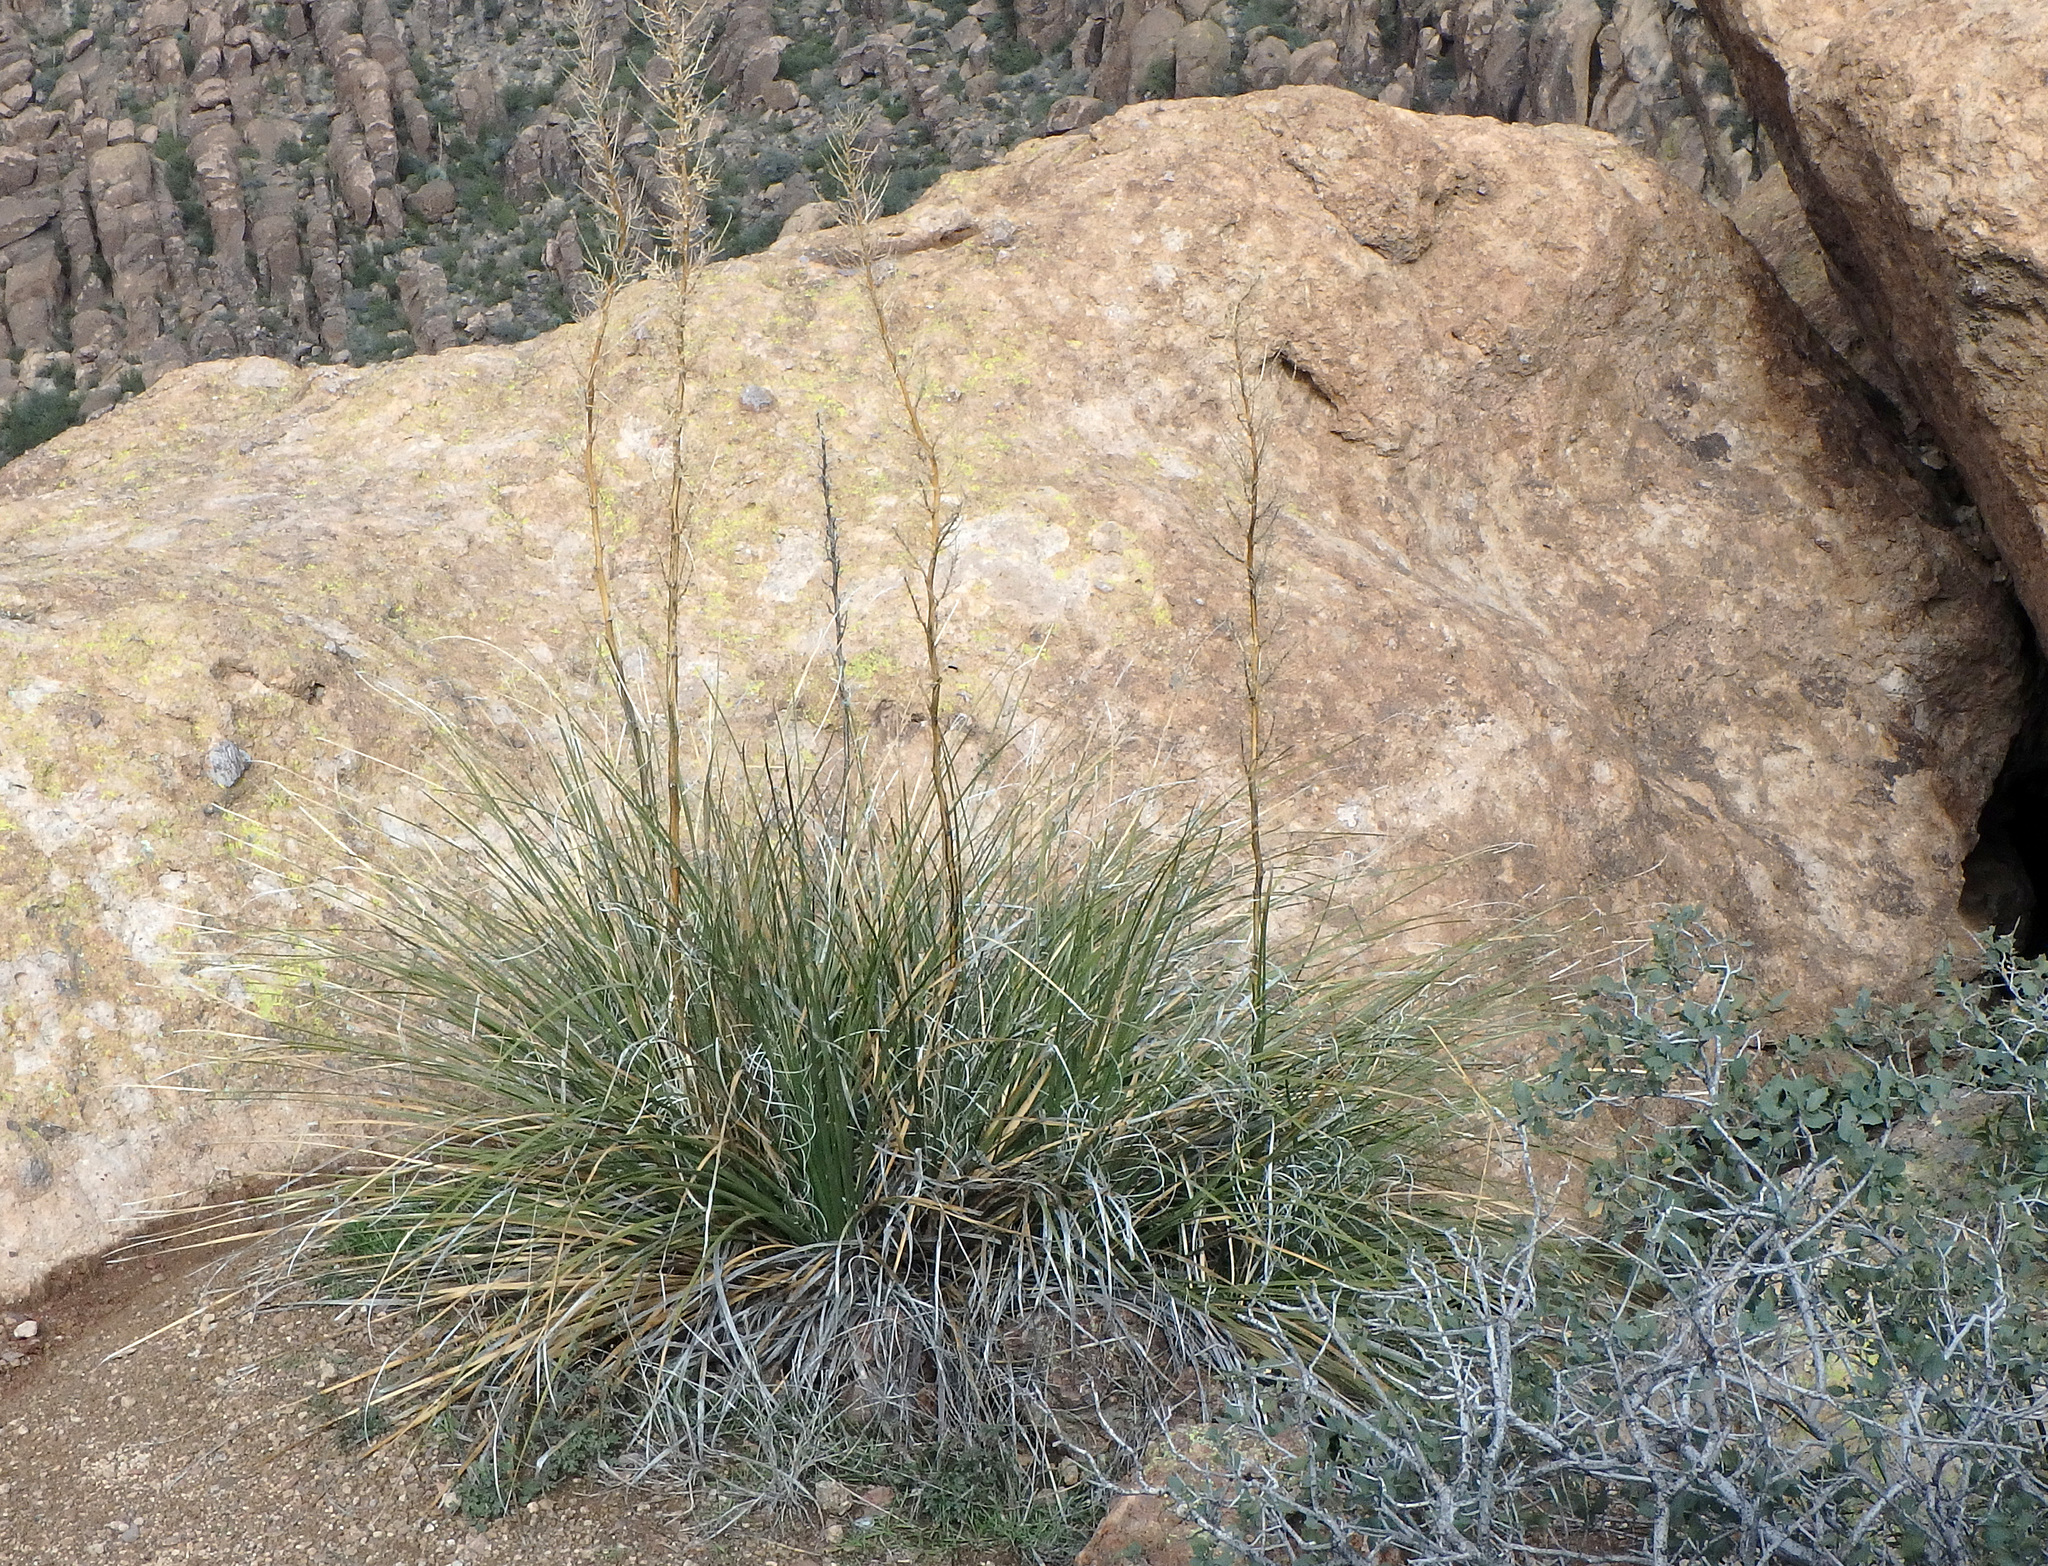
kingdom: Plantae
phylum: Tracheophyta
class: Liliopsida
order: Asparagales
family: Asparagaceae
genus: Nolina
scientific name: Nolina microcarpa
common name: Bear-grass
